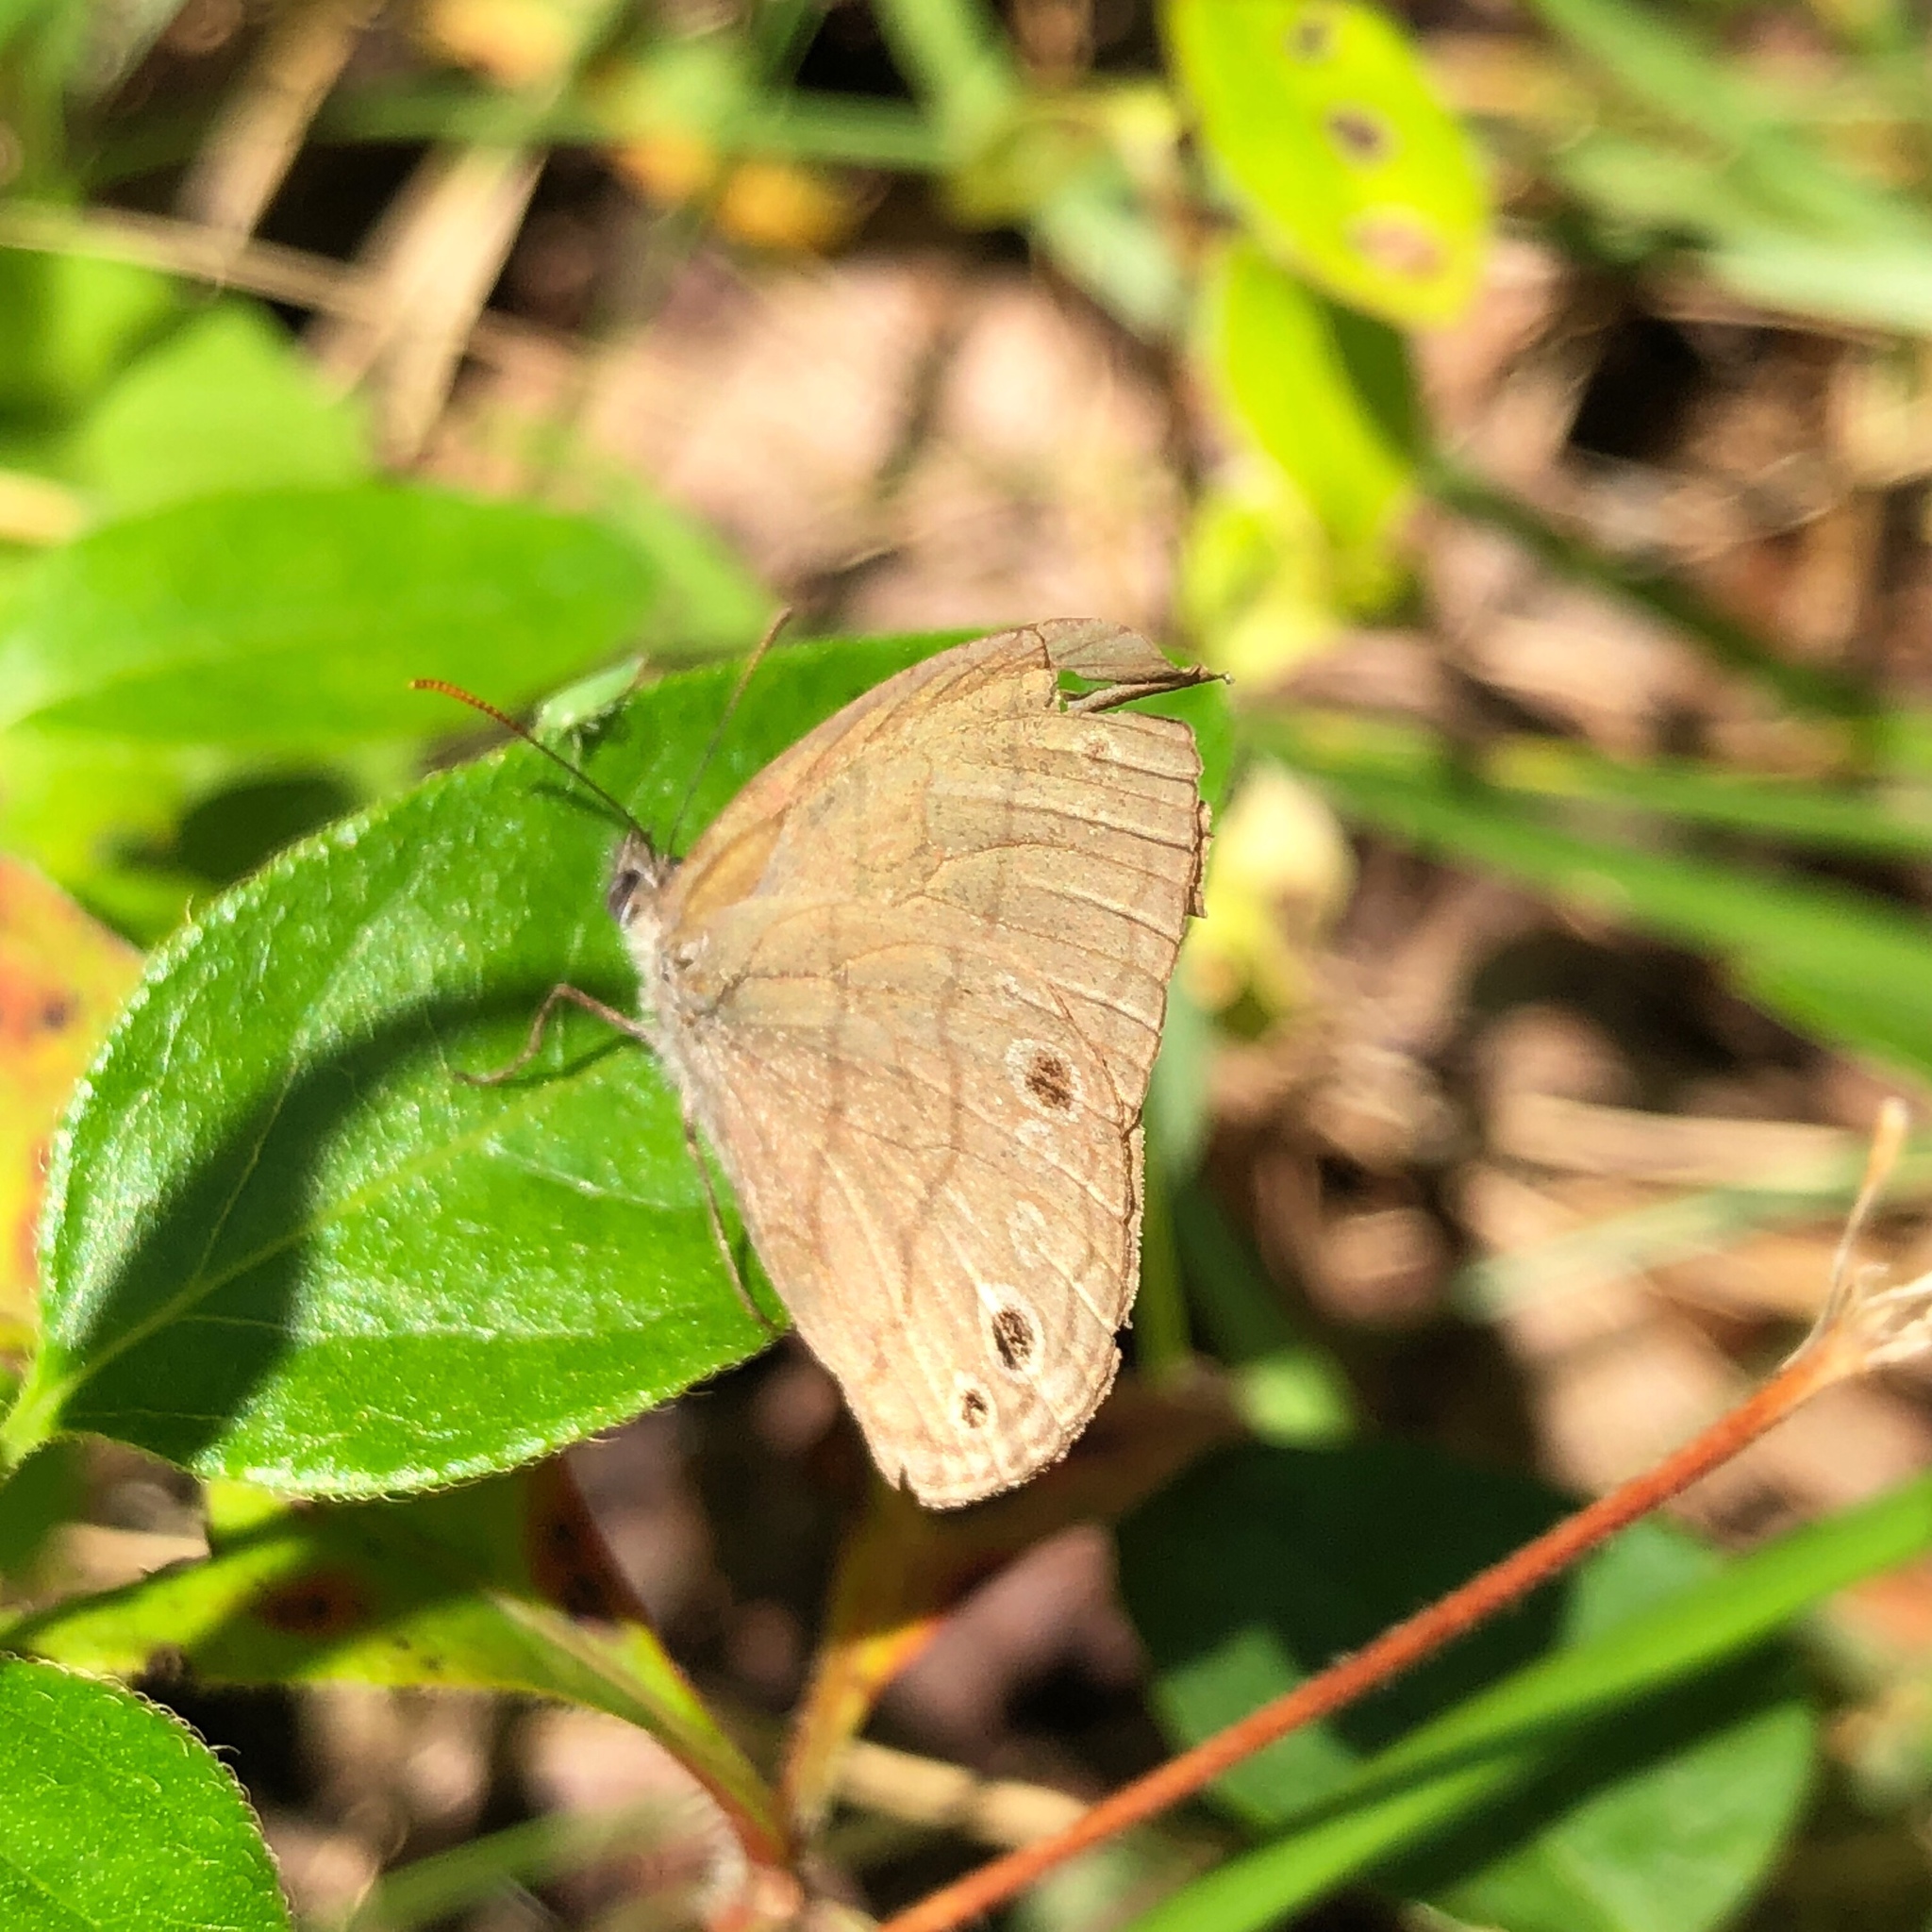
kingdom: Animalia
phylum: Arthropoda
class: Insecta
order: Lepidoptera
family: Nymphalidae
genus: Hermeuptychia
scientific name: Hermeuptychia hermes
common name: Hermes satyr
